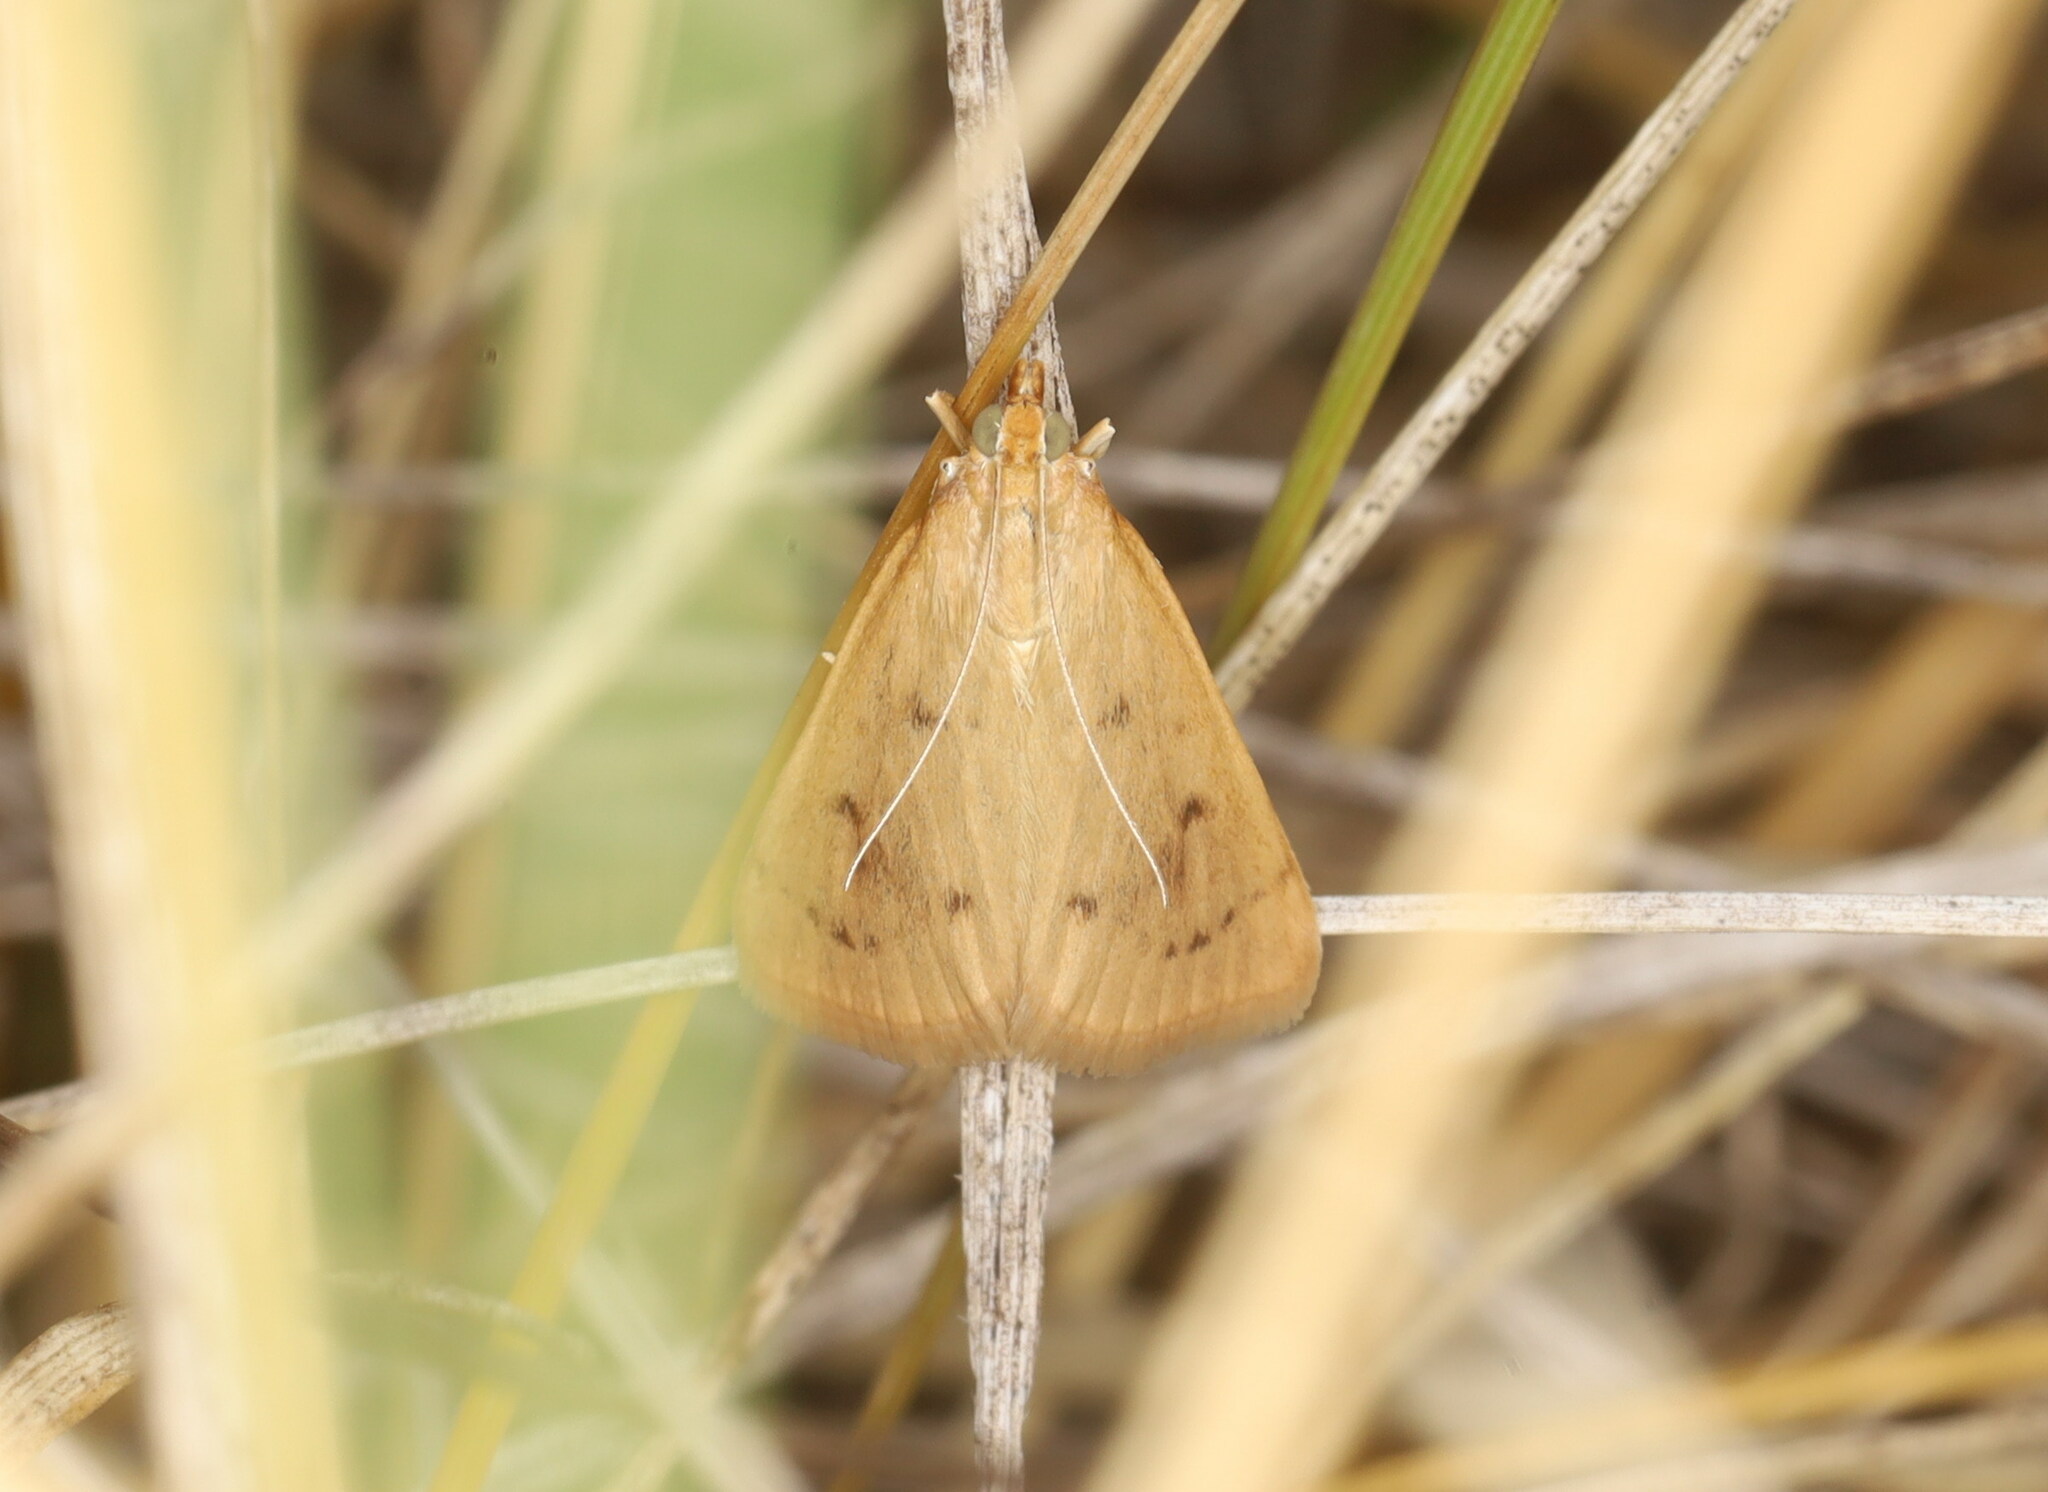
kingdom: Animalia
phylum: Arthropoda
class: Insecta
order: Lepidoptera
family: Crambidae
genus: Achyra
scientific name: Achyra nudalis
